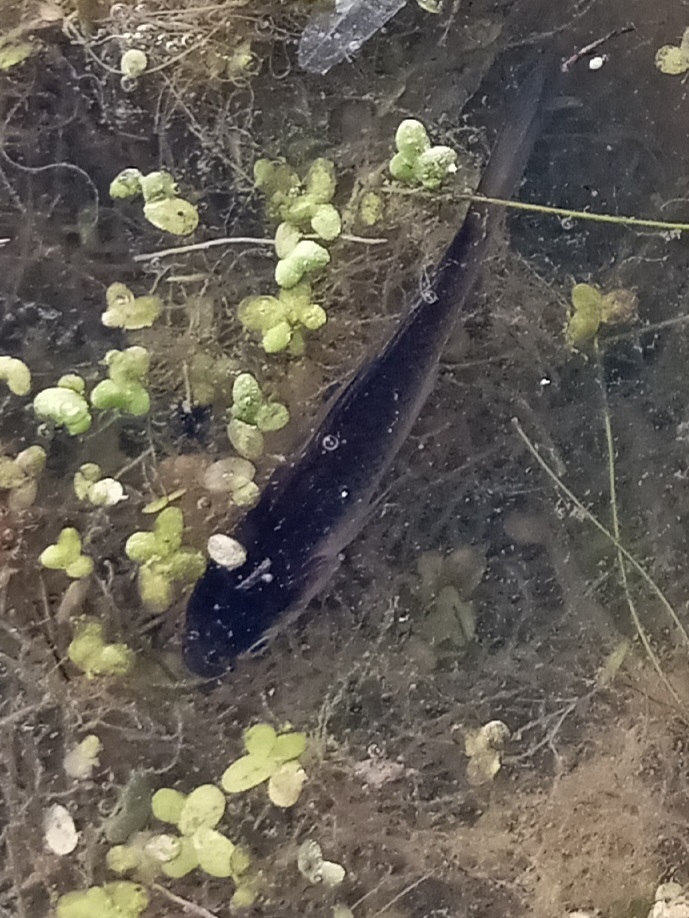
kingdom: Animalia
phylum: Chordata
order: Cypriniformes
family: Cyprinidae
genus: Carassius
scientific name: Carassius auratus
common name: Goldfish
